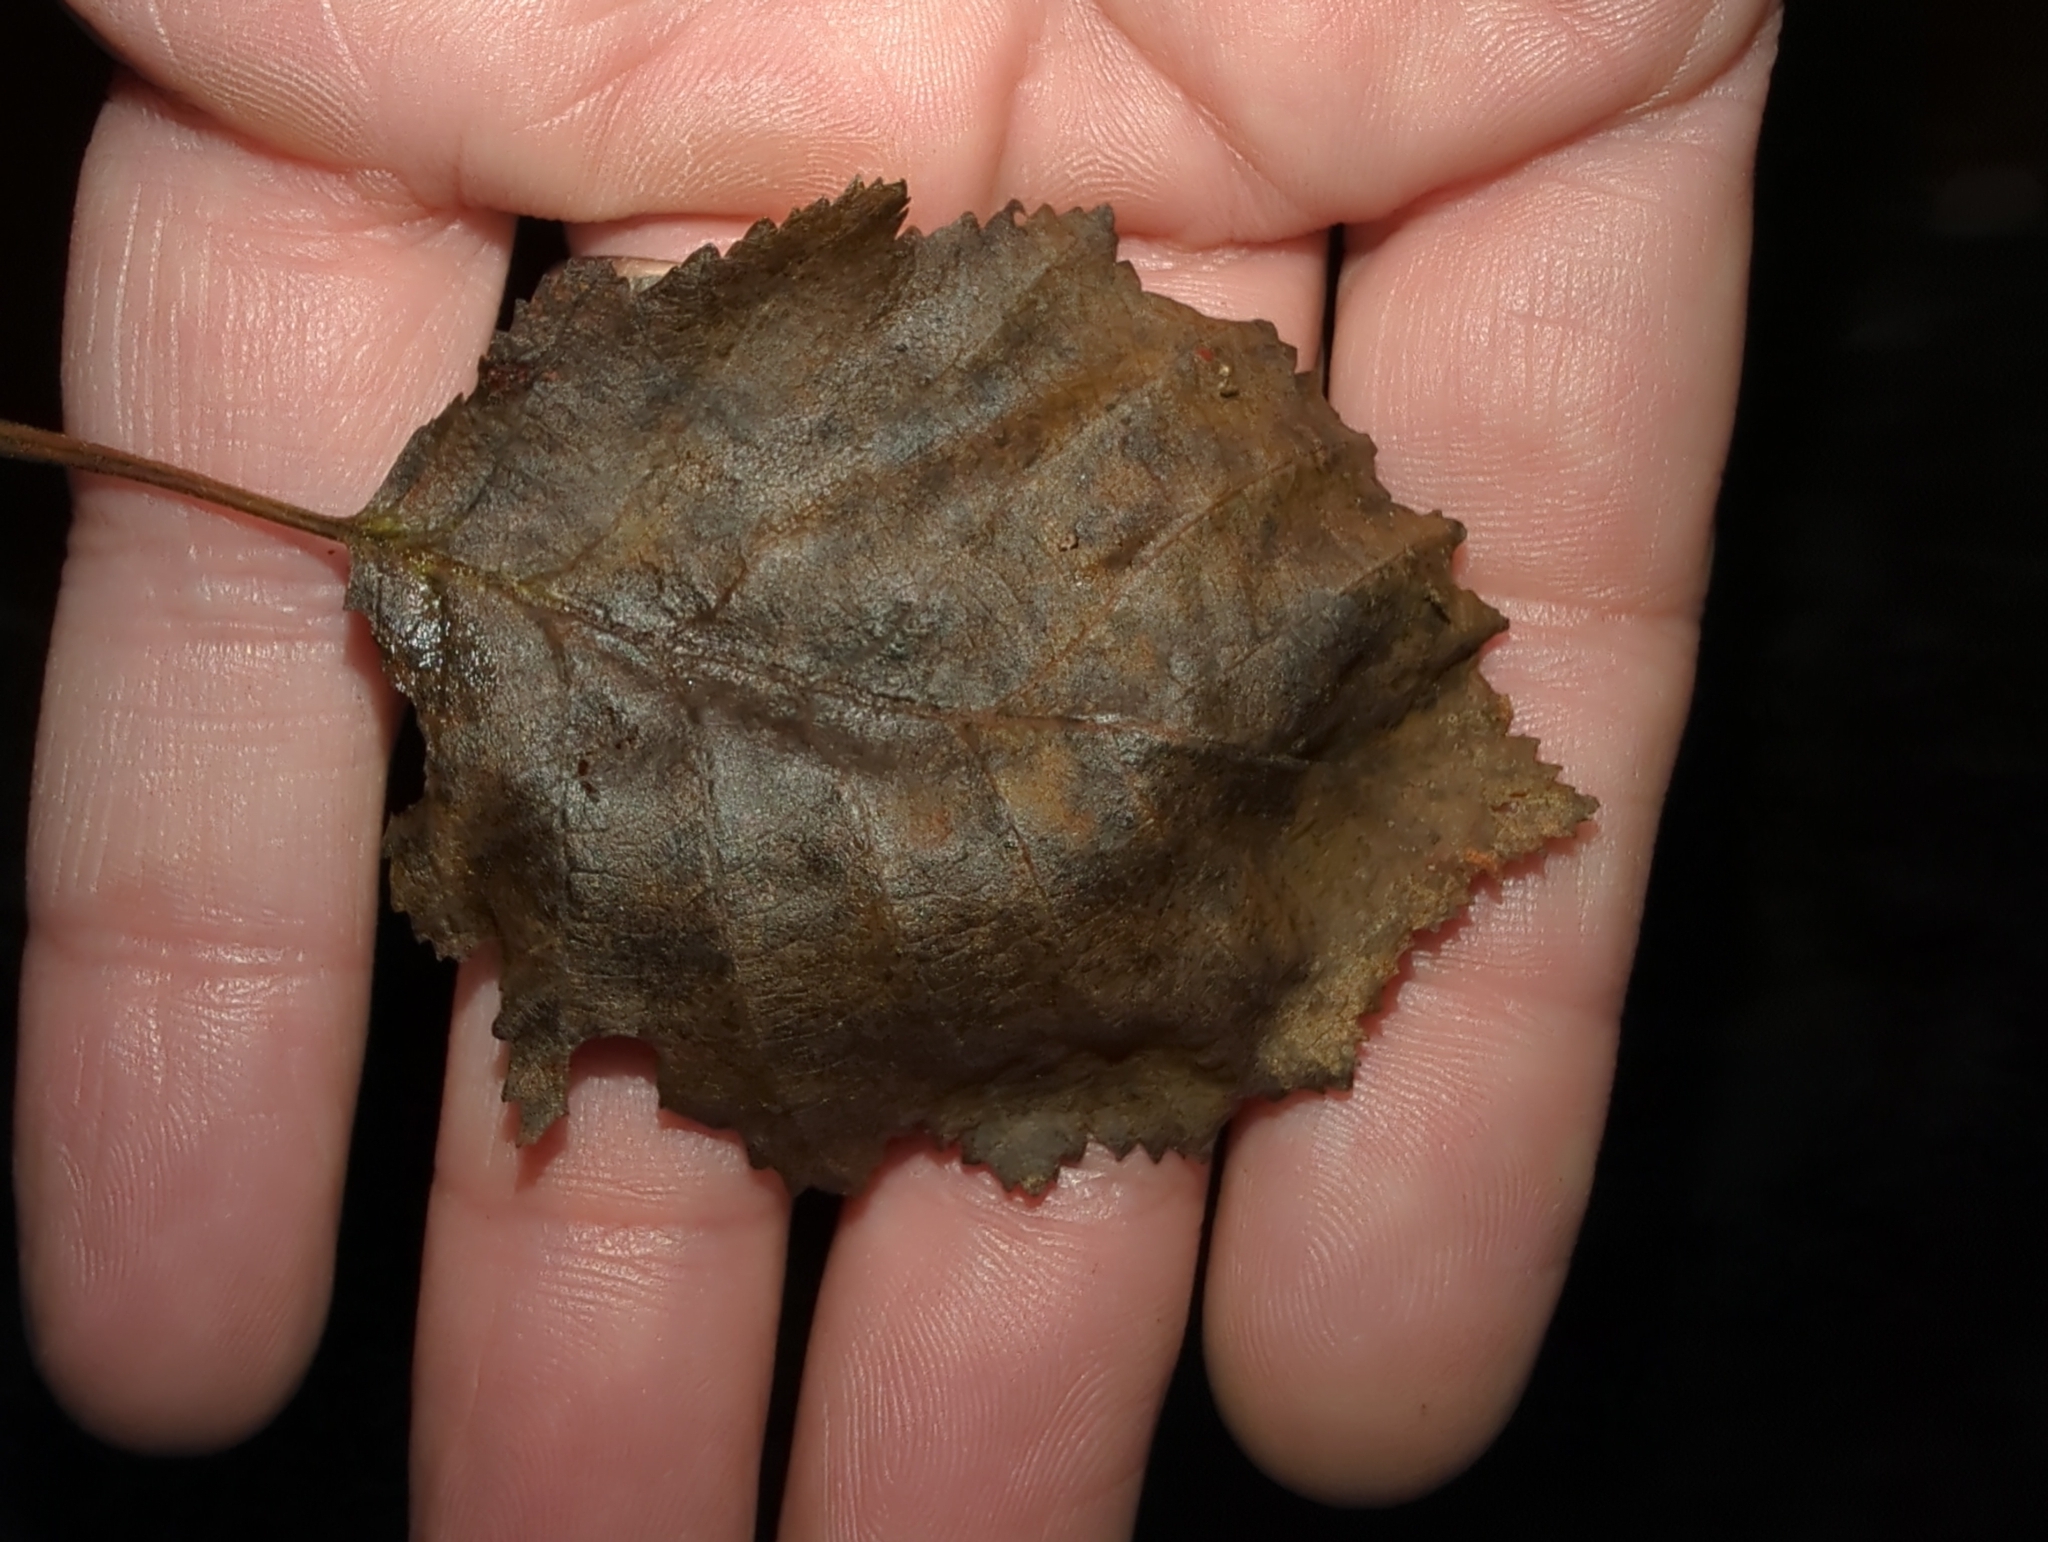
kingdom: Animalia
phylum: Arthropoda
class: Arachnida
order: Trombidiformes
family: Eriophyidae
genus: Acalitus
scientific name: Acalitus phyllereus
